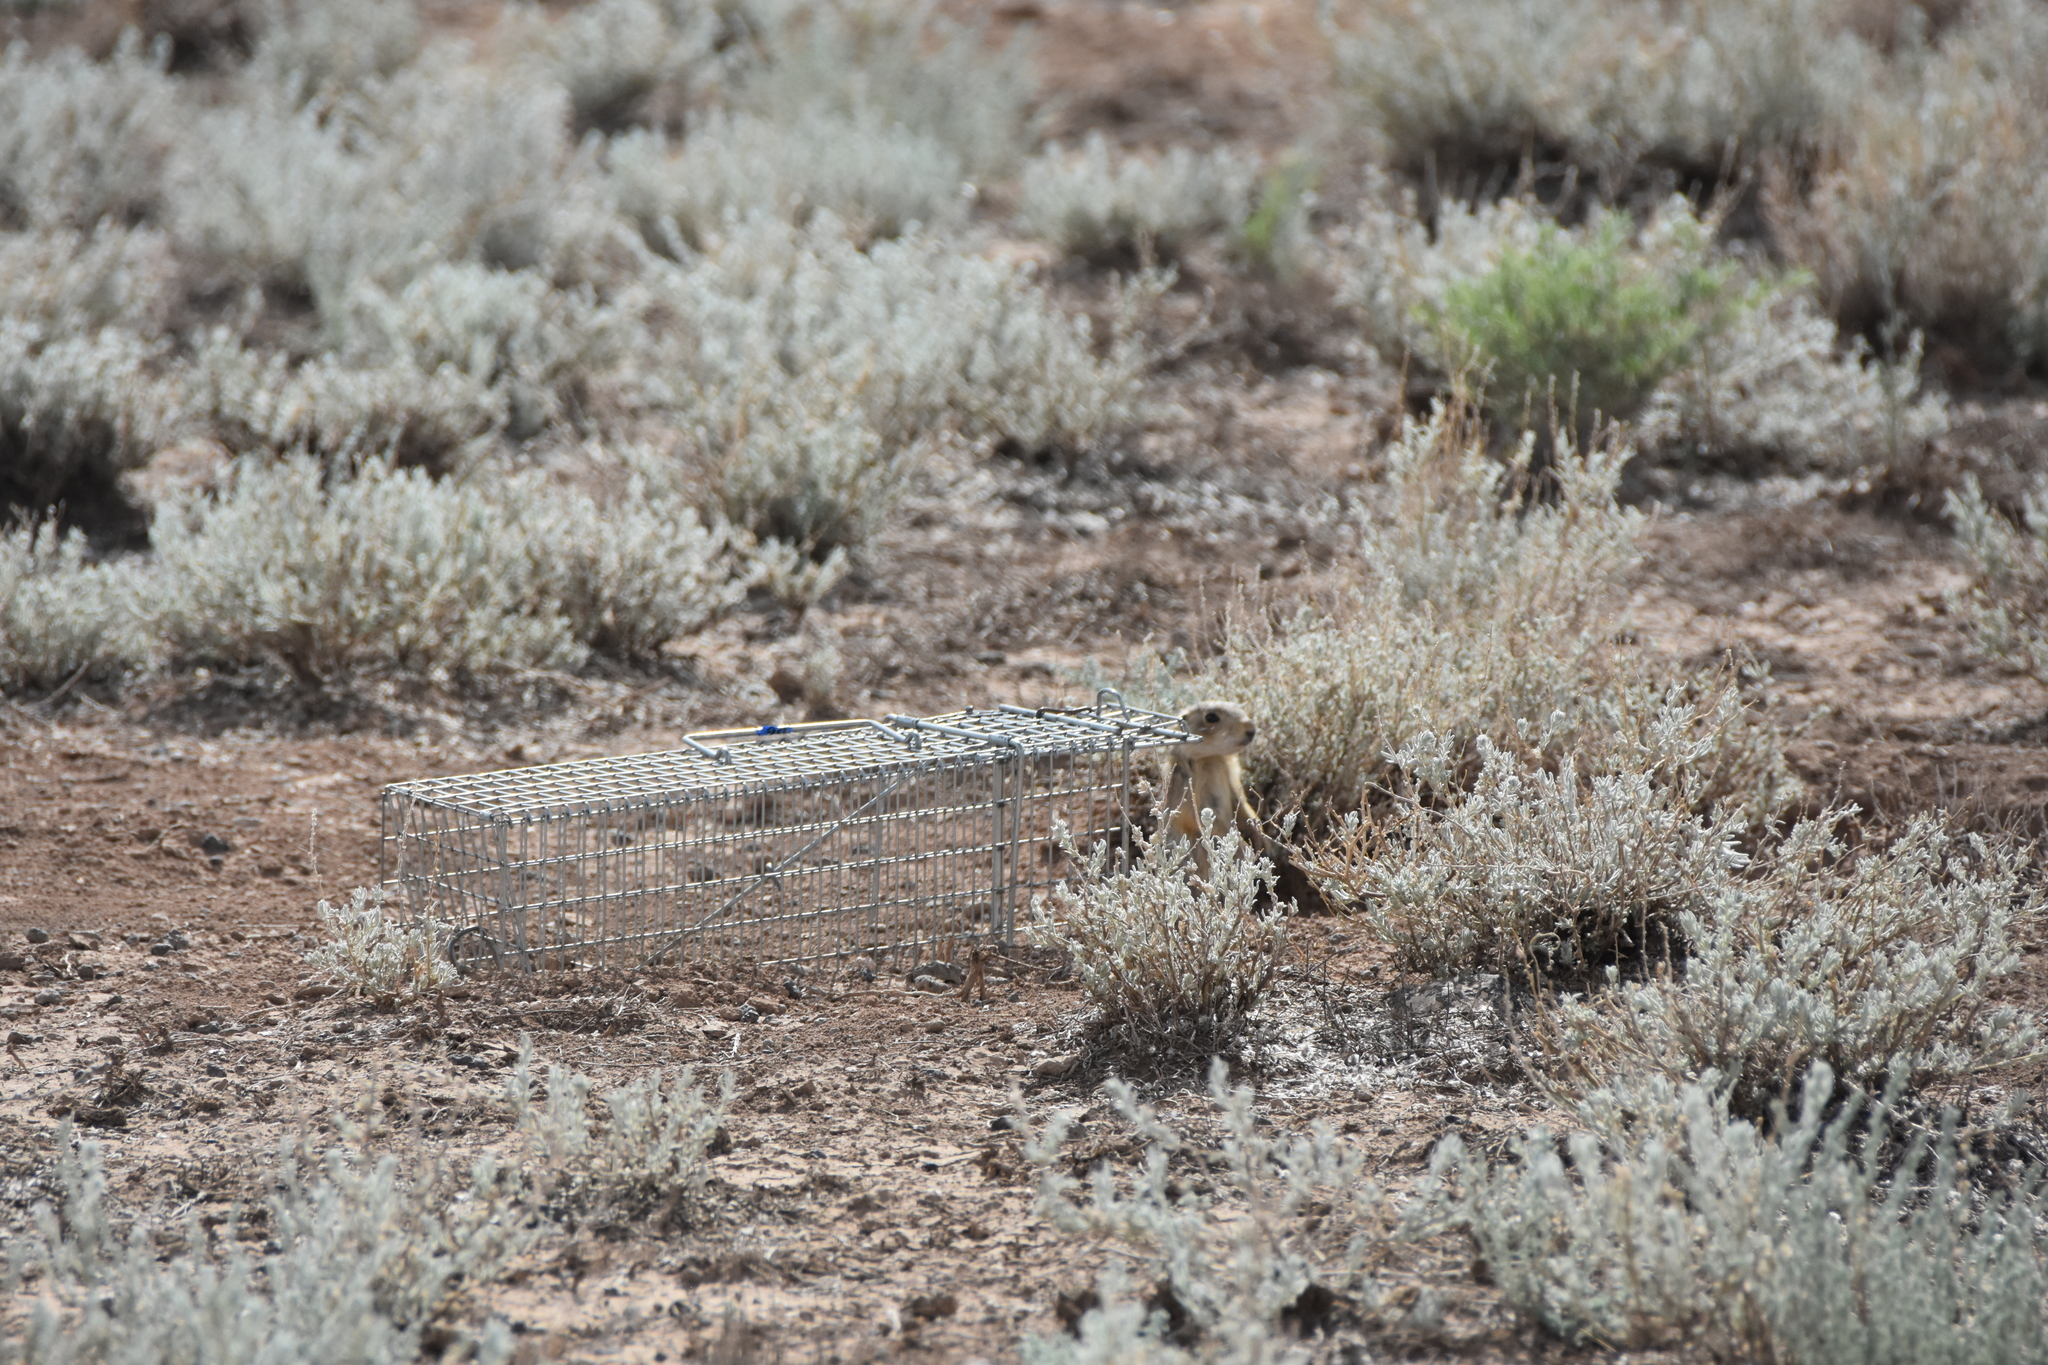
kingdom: Animalia
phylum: Chordata
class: Mammalia
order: Rodentia
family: Sciuridae
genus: Cynomys
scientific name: Cynomys gunnisoni
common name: Gunnison's prairie dog
